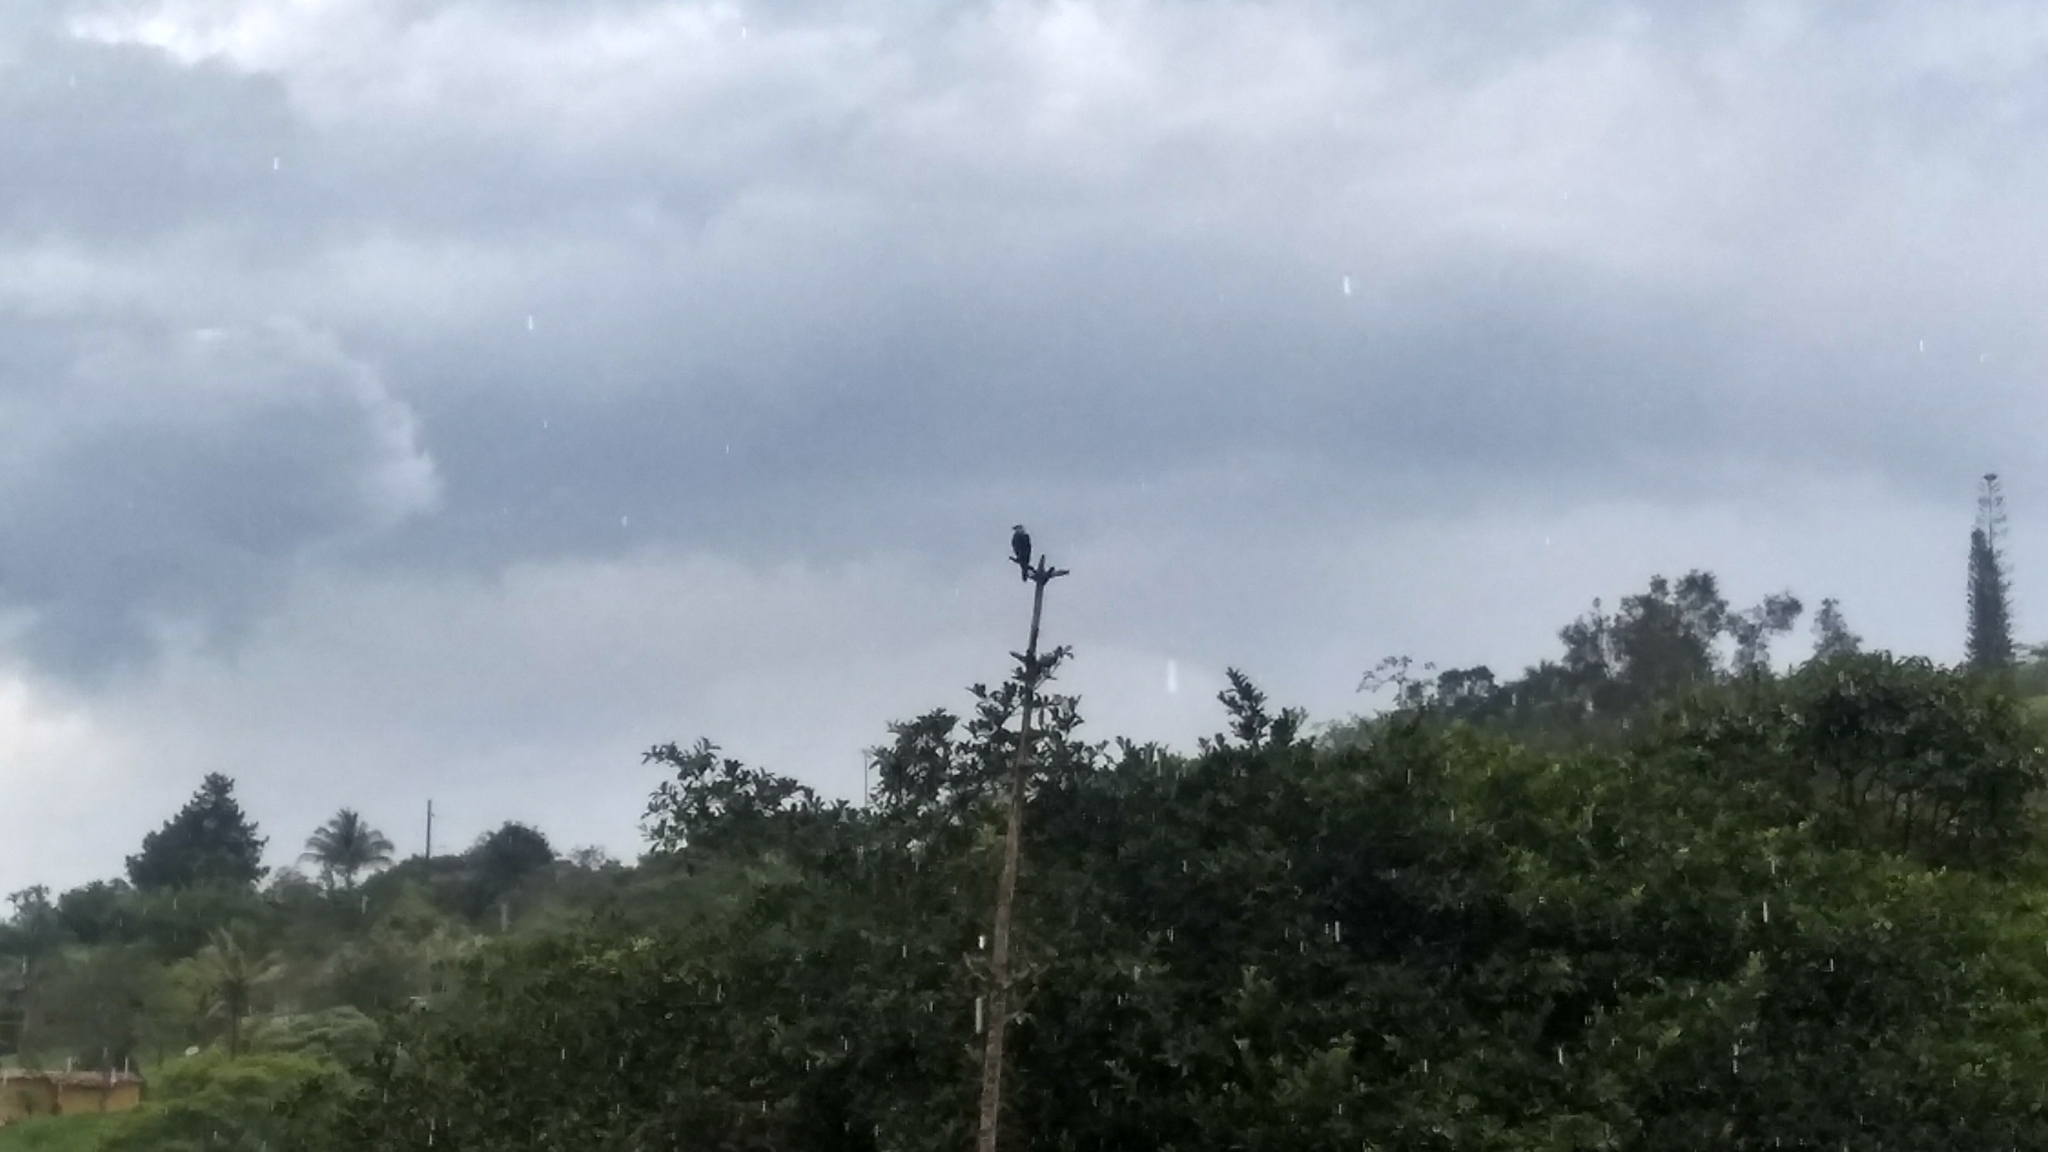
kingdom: Animalia
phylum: Chordata
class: Aves
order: Falconiformes
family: Falconidae
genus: Daptrius
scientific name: Daptrius
